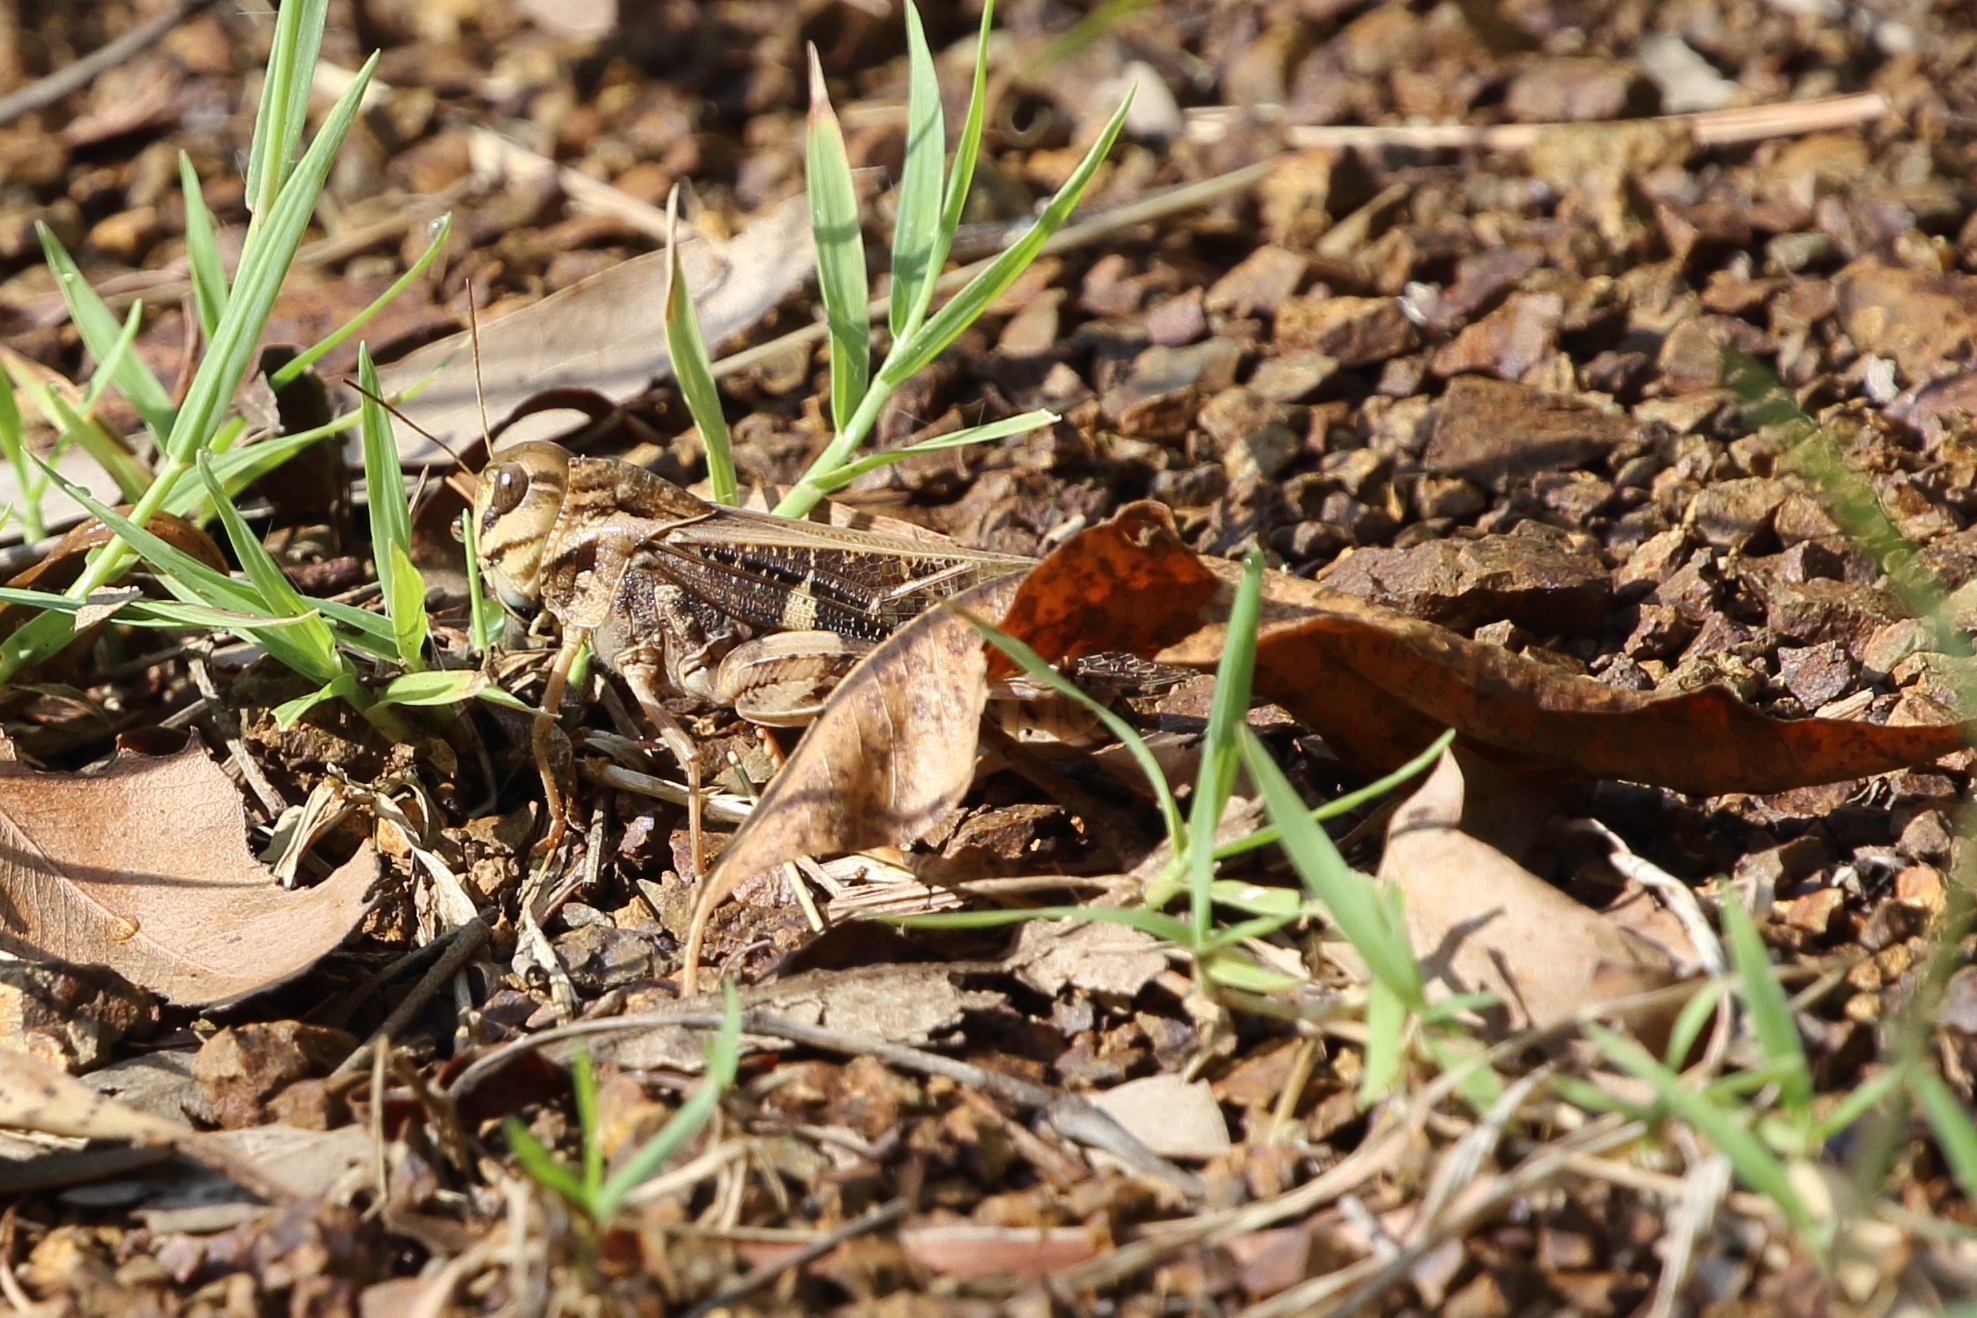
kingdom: Animalia
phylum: Arthropoda
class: Insecta
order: Orthoptera
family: Acrididae
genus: Gastrimargus
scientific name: Gastrimargus musicus
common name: Yellow-winged locust
